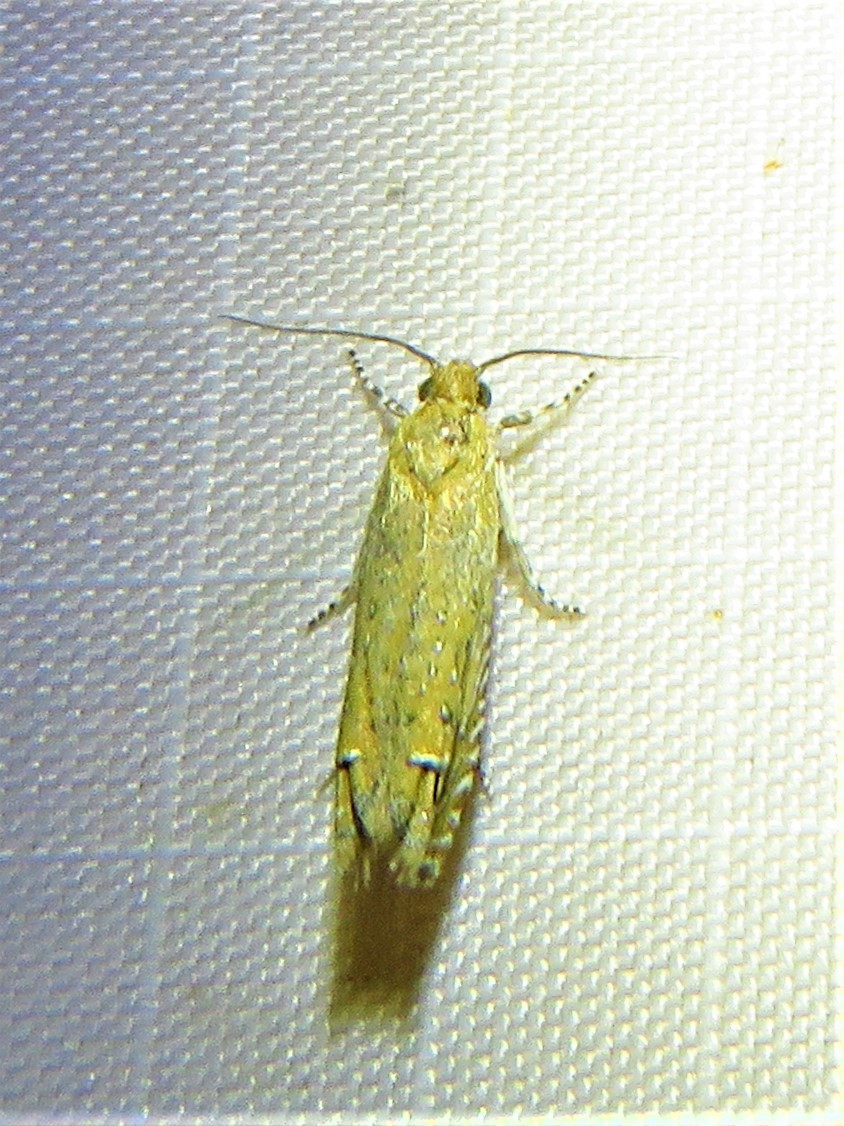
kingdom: Animalia
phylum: Arthropoda
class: Insecta
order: Lepidoptera
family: Tortricidae
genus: Pelochrista
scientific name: Pelochrista albiguttana
